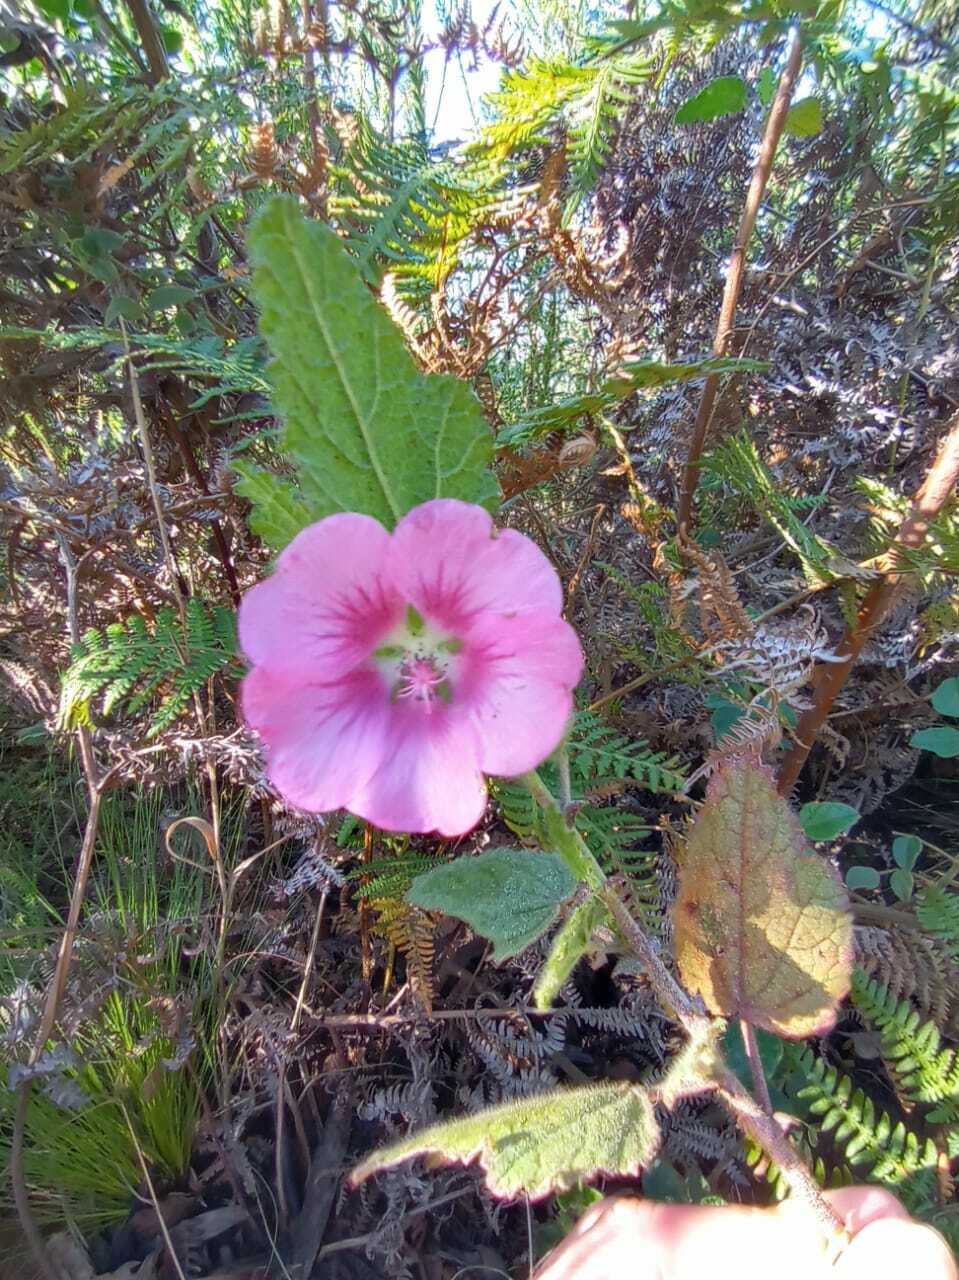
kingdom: Plantae
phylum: Tracheophyta
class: Magnoliopsida
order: Malvales
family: Malvaceae
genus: Anisodontea
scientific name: Anisodontea scabrosa
